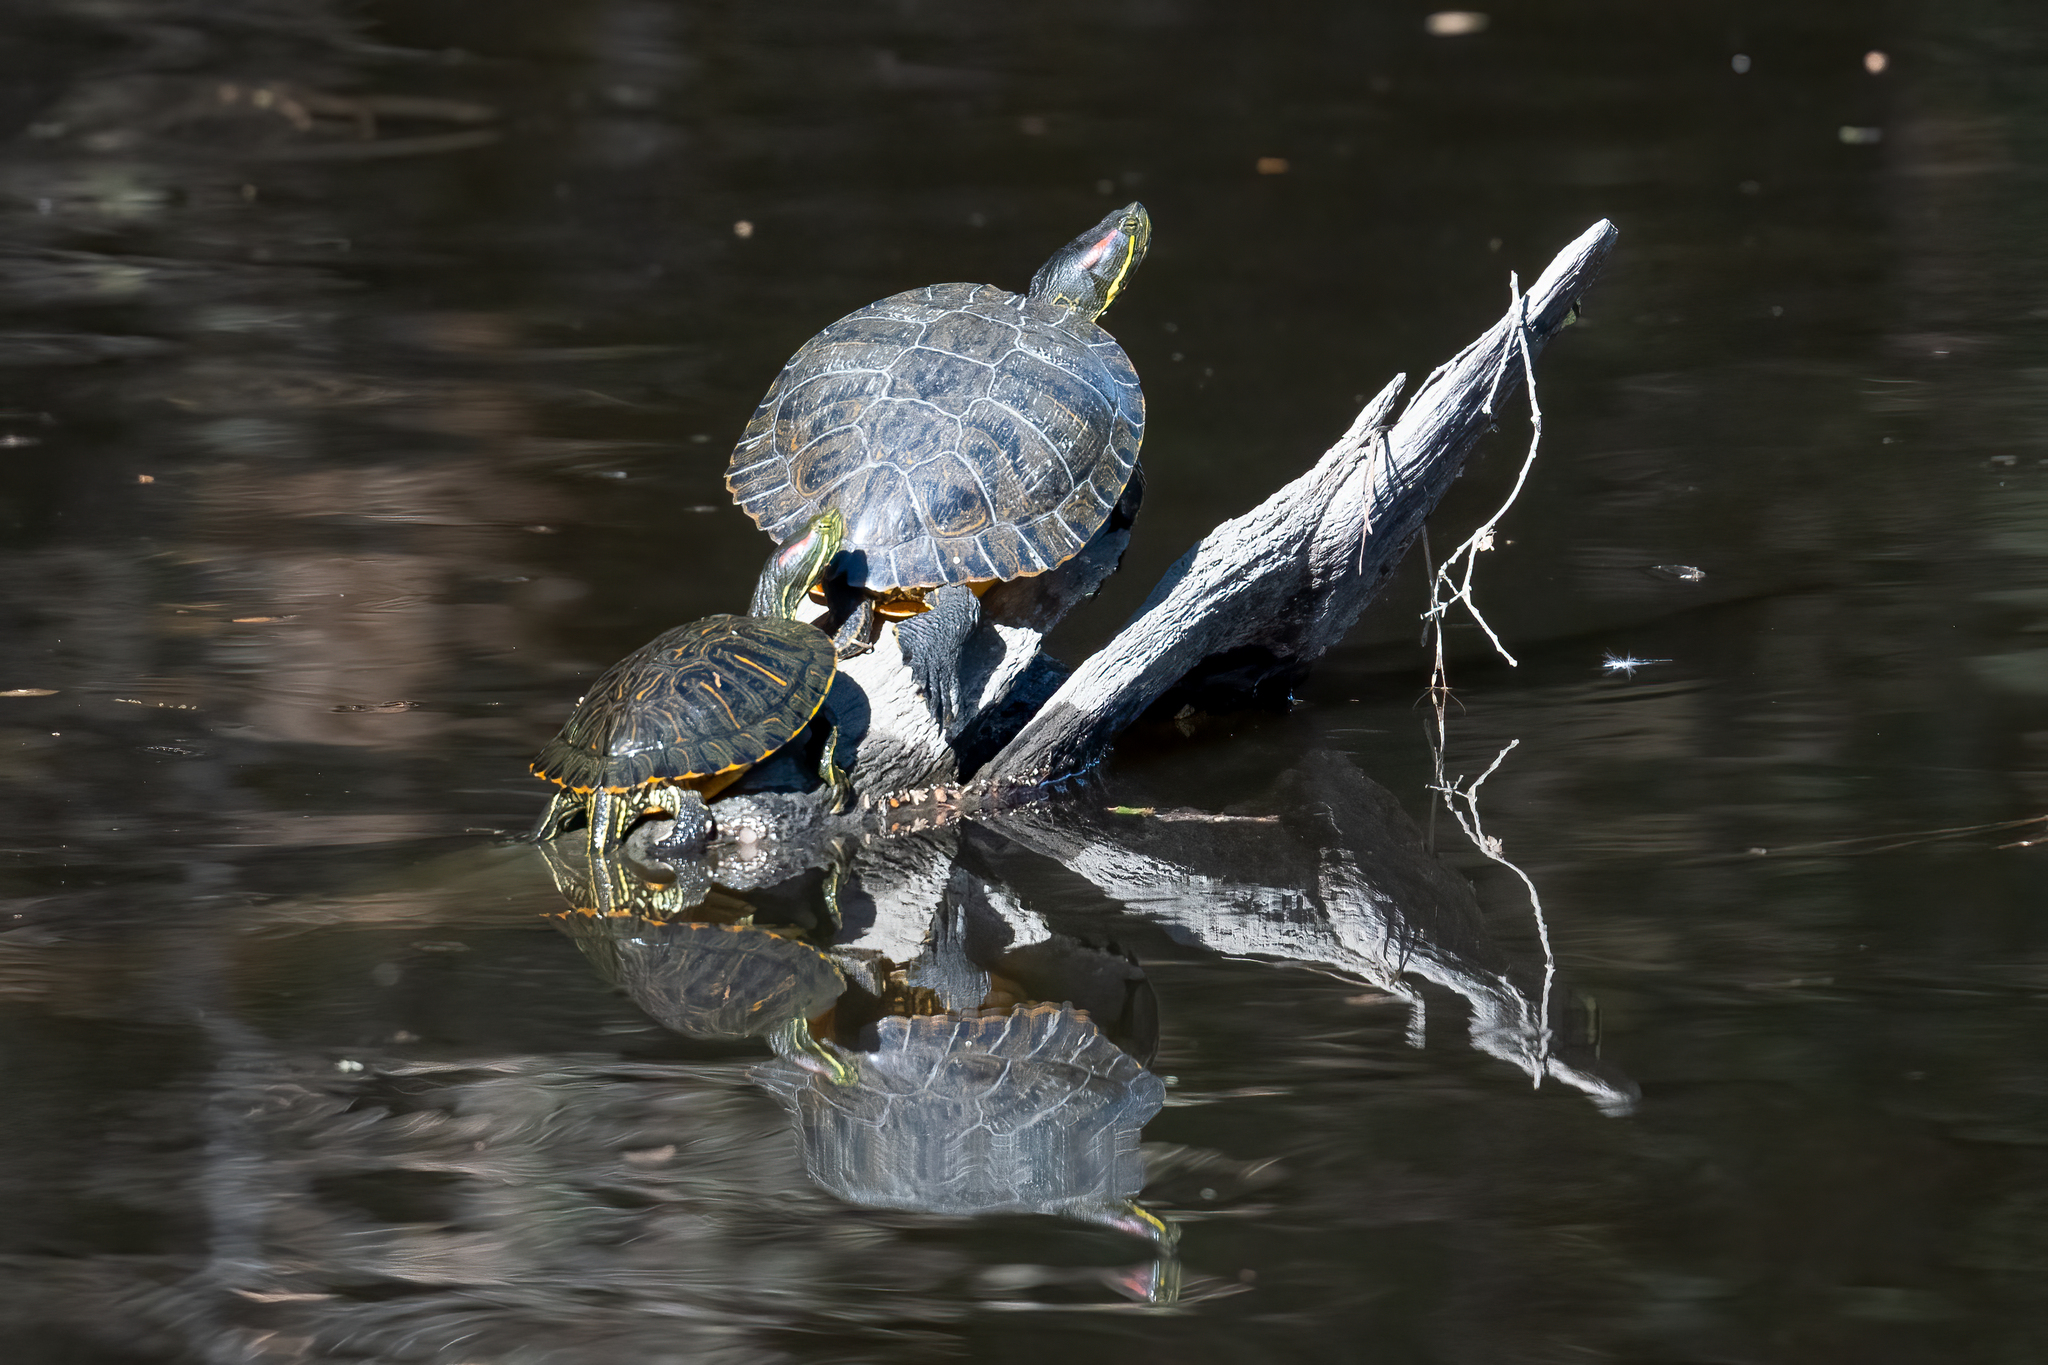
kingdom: Animalia
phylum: Chordata
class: Testudines
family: Emydidae
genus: Trachemys
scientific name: Trachemys scripta
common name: Slider
